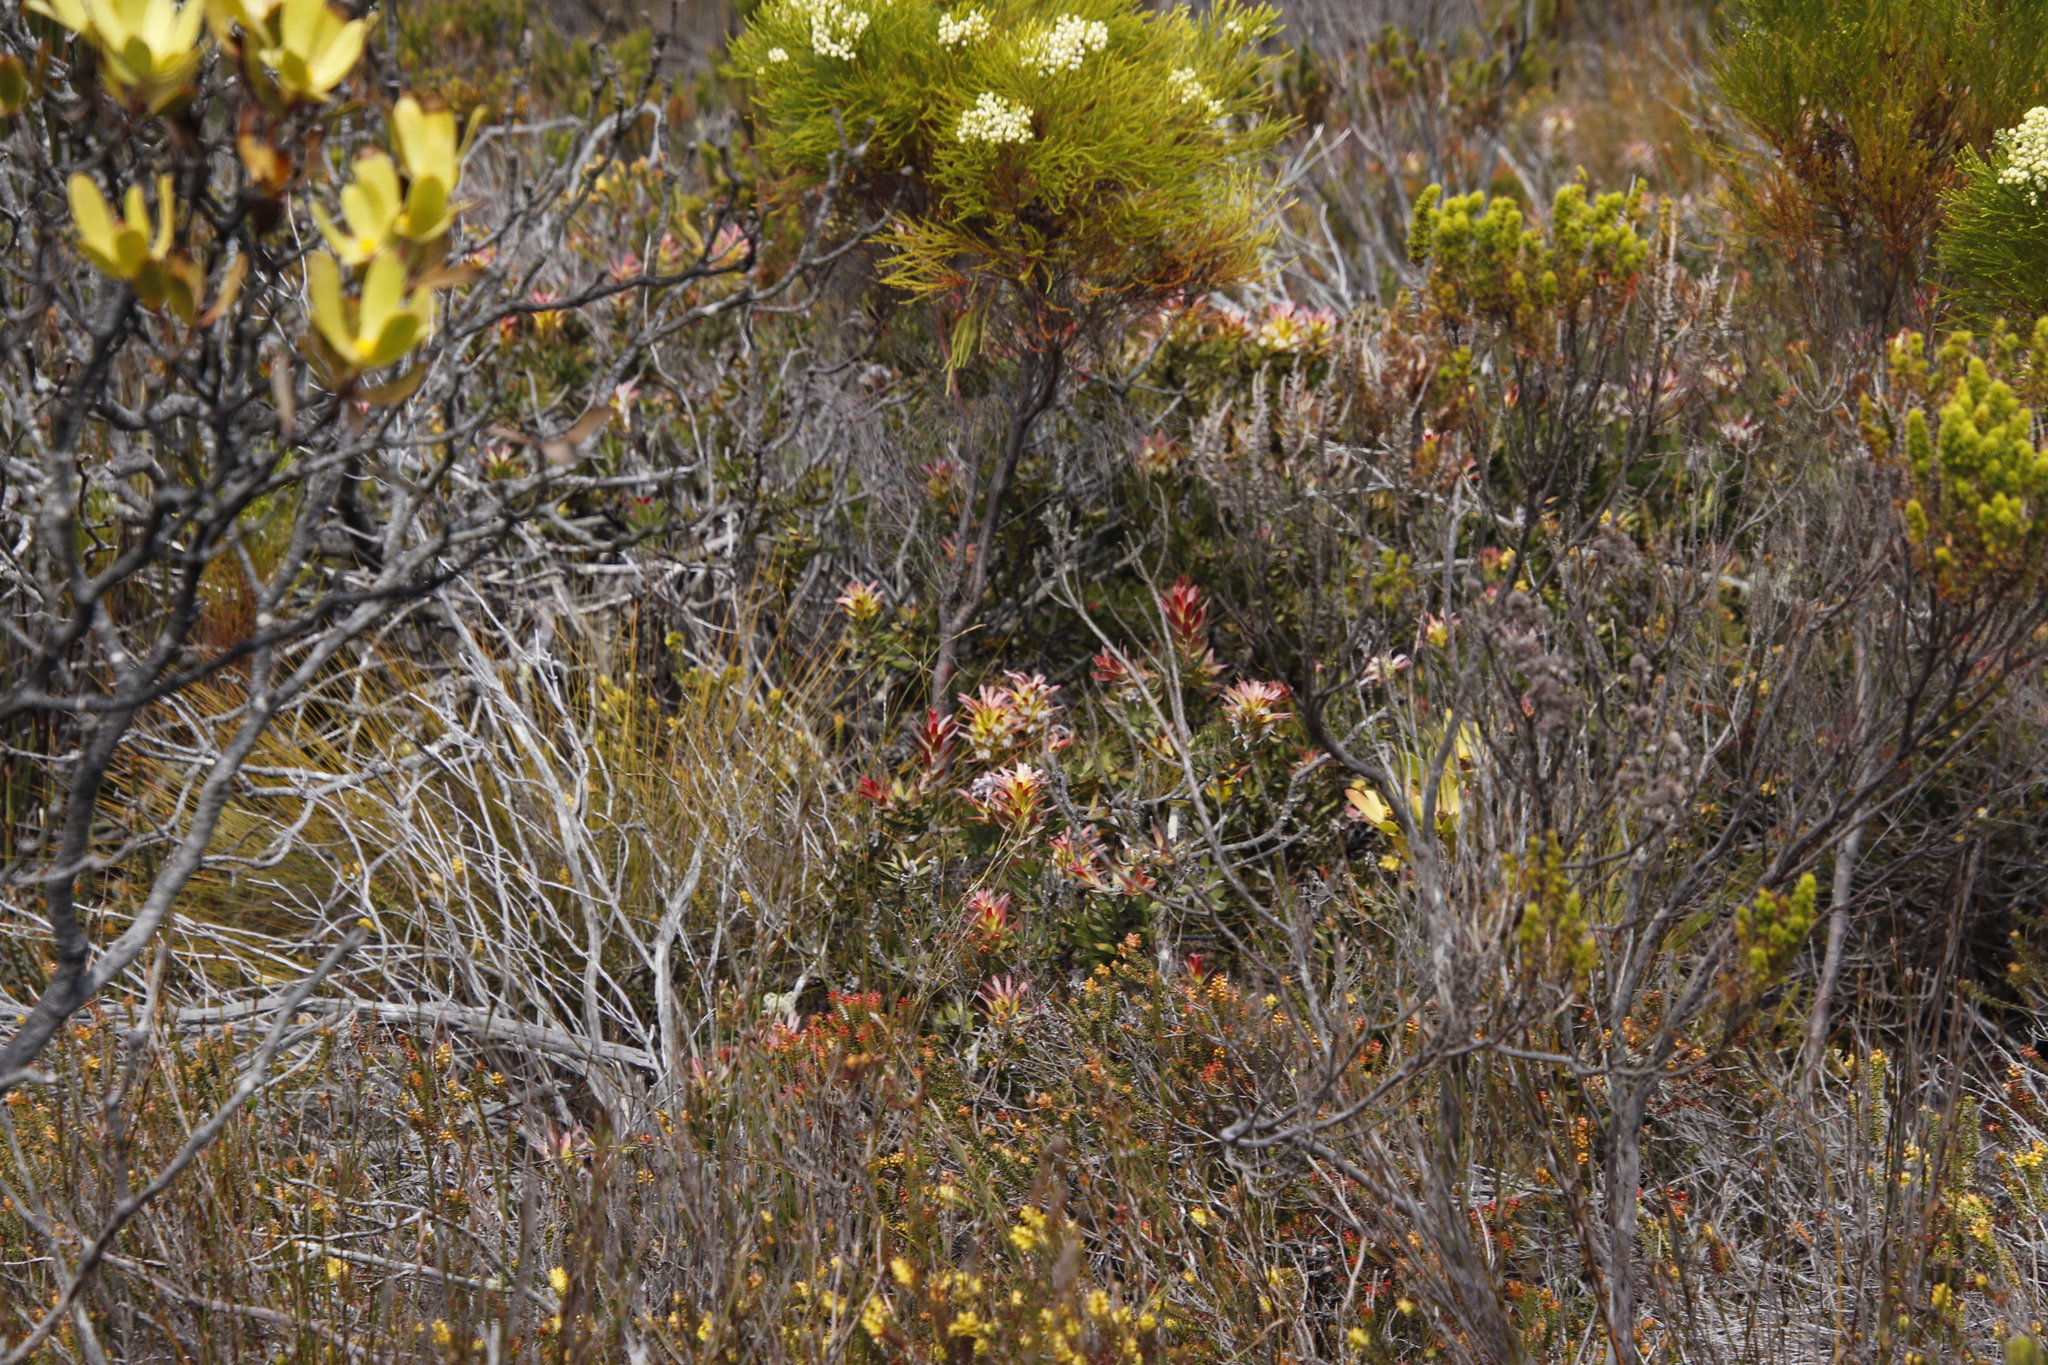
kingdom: Plantae
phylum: Tracheophyta
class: Magnoliopsida
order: Proteales
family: Proteaceae
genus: Mimetes
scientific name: Mimetes cucullatus
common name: Common pagoda
